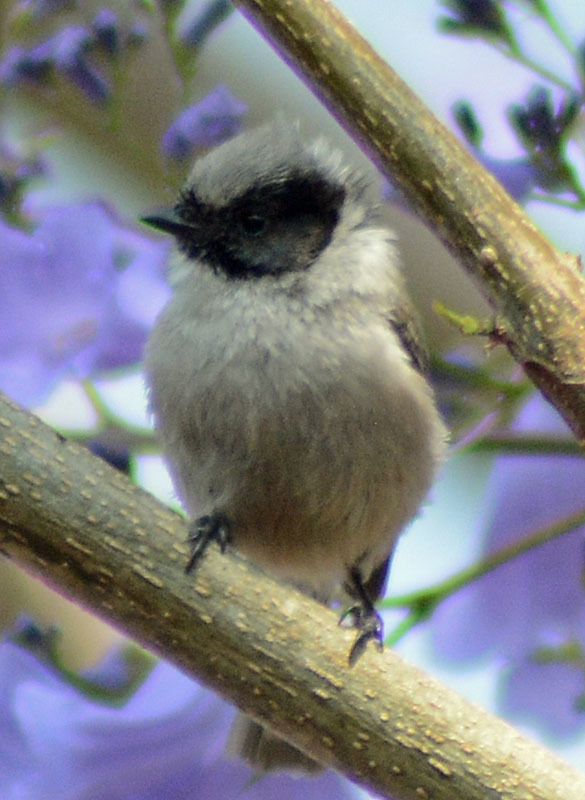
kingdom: Animalia
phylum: Chordata
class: Aves
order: Passeriformes
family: Aegithalidae
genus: Psaltriparus
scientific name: Psaltriparus minimus
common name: American bushtit
